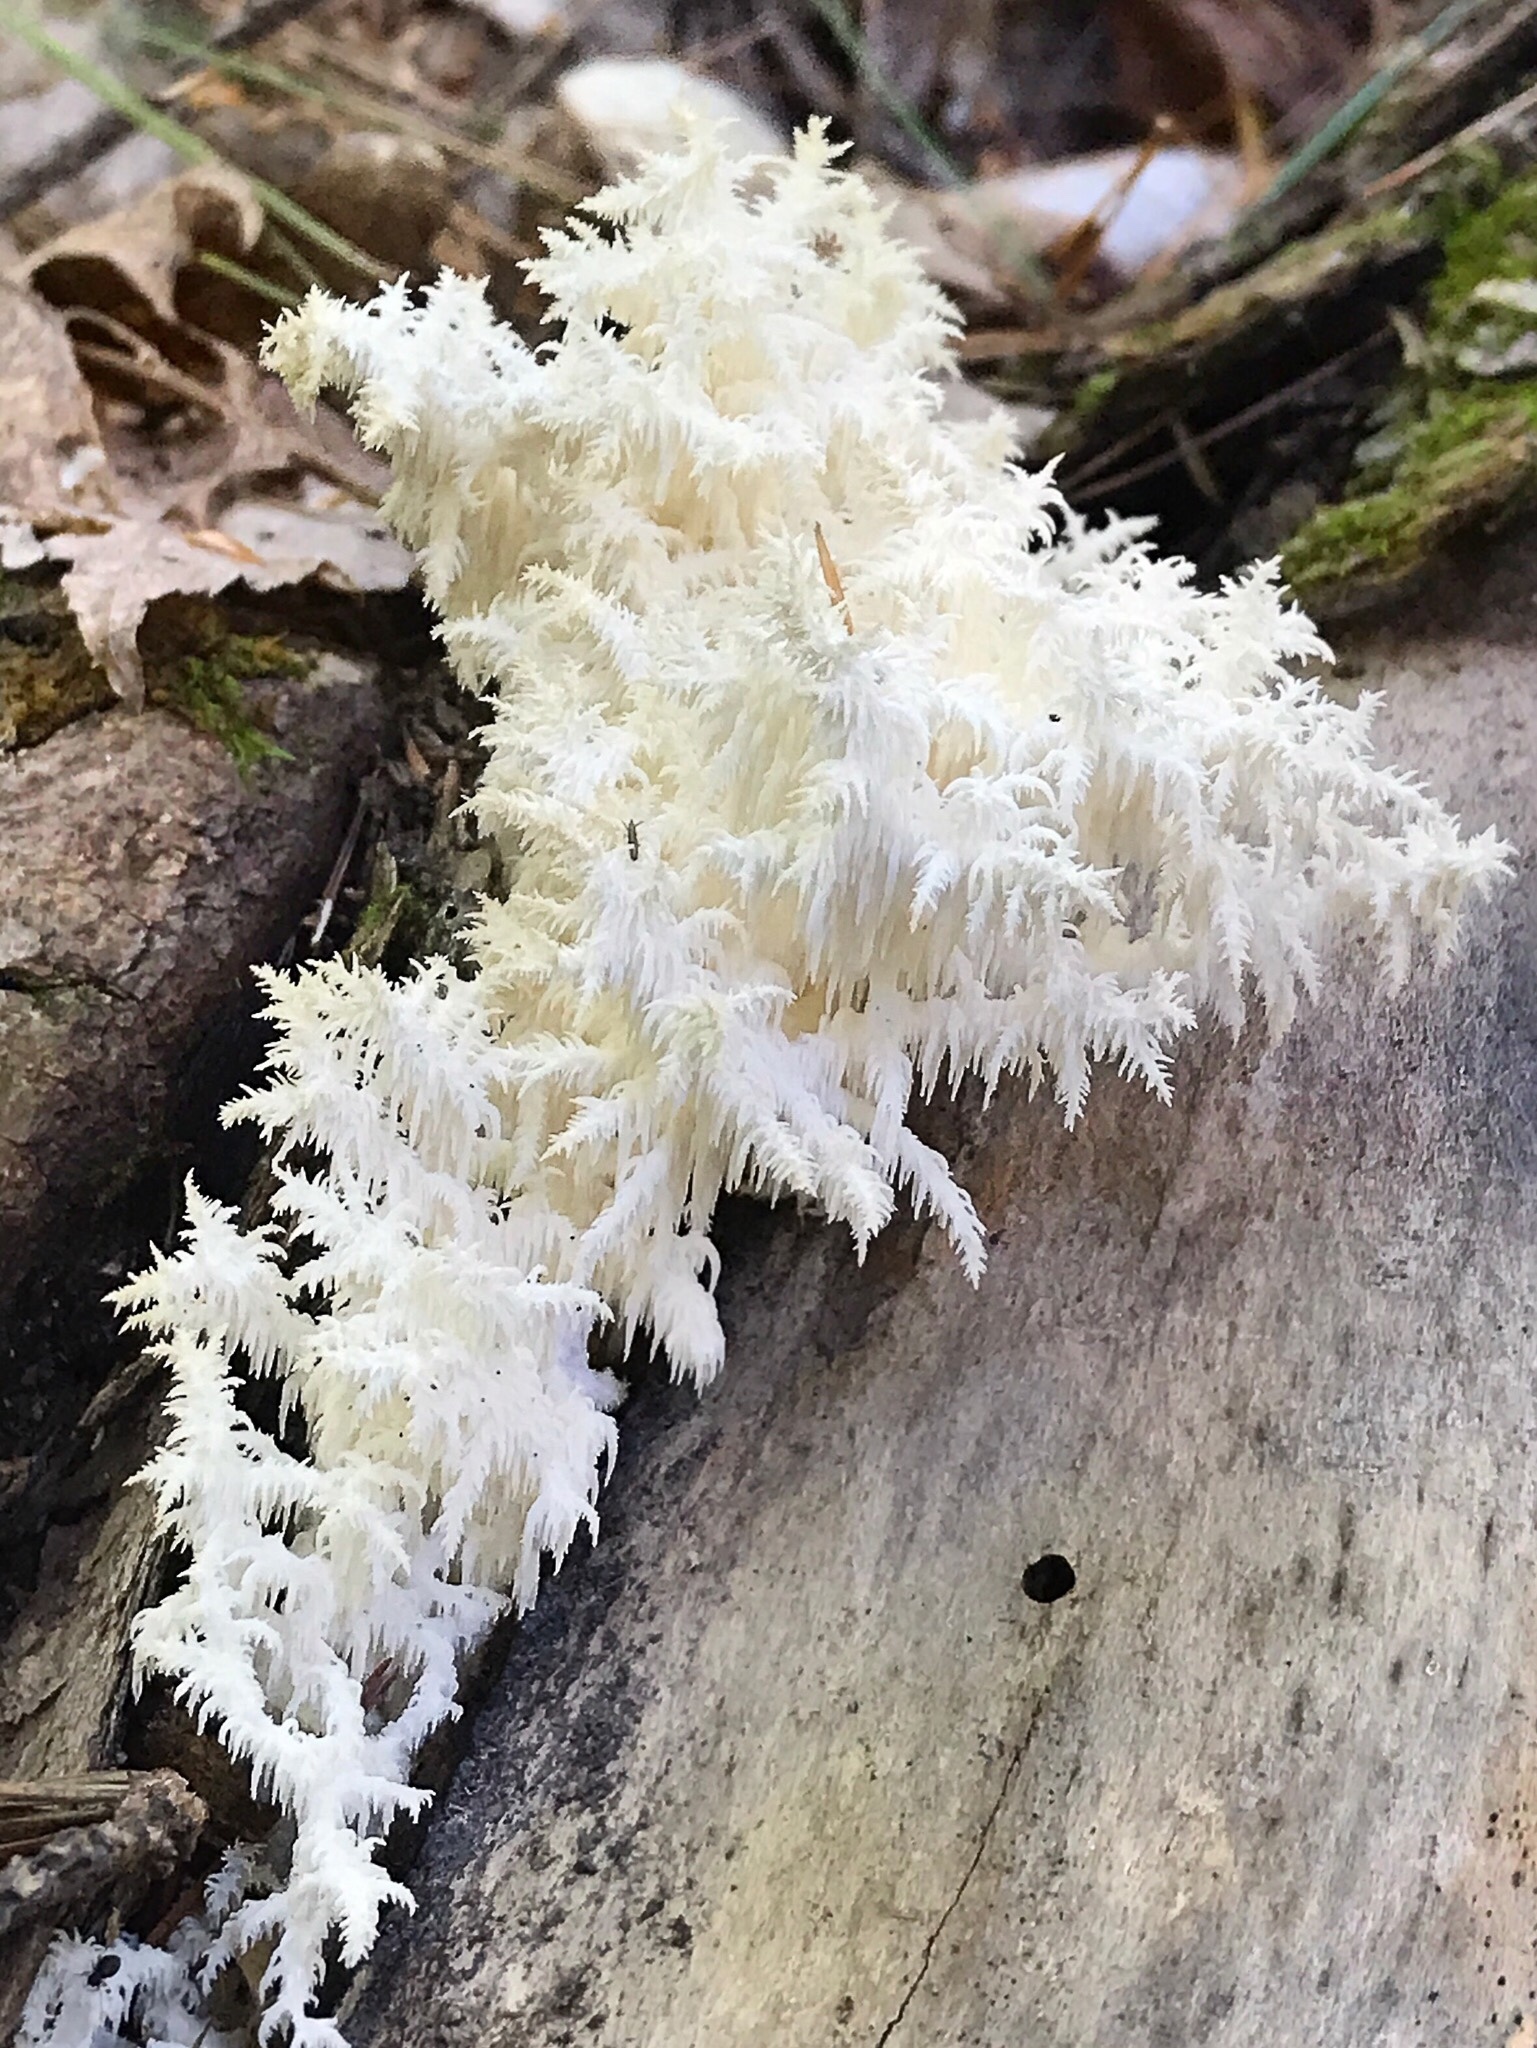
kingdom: Fungi
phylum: Basidiomycota
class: Agaricomycetes
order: Russulales
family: Hericiaceae
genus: Hericium
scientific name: Hericium coralloides
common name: Coral tooth
